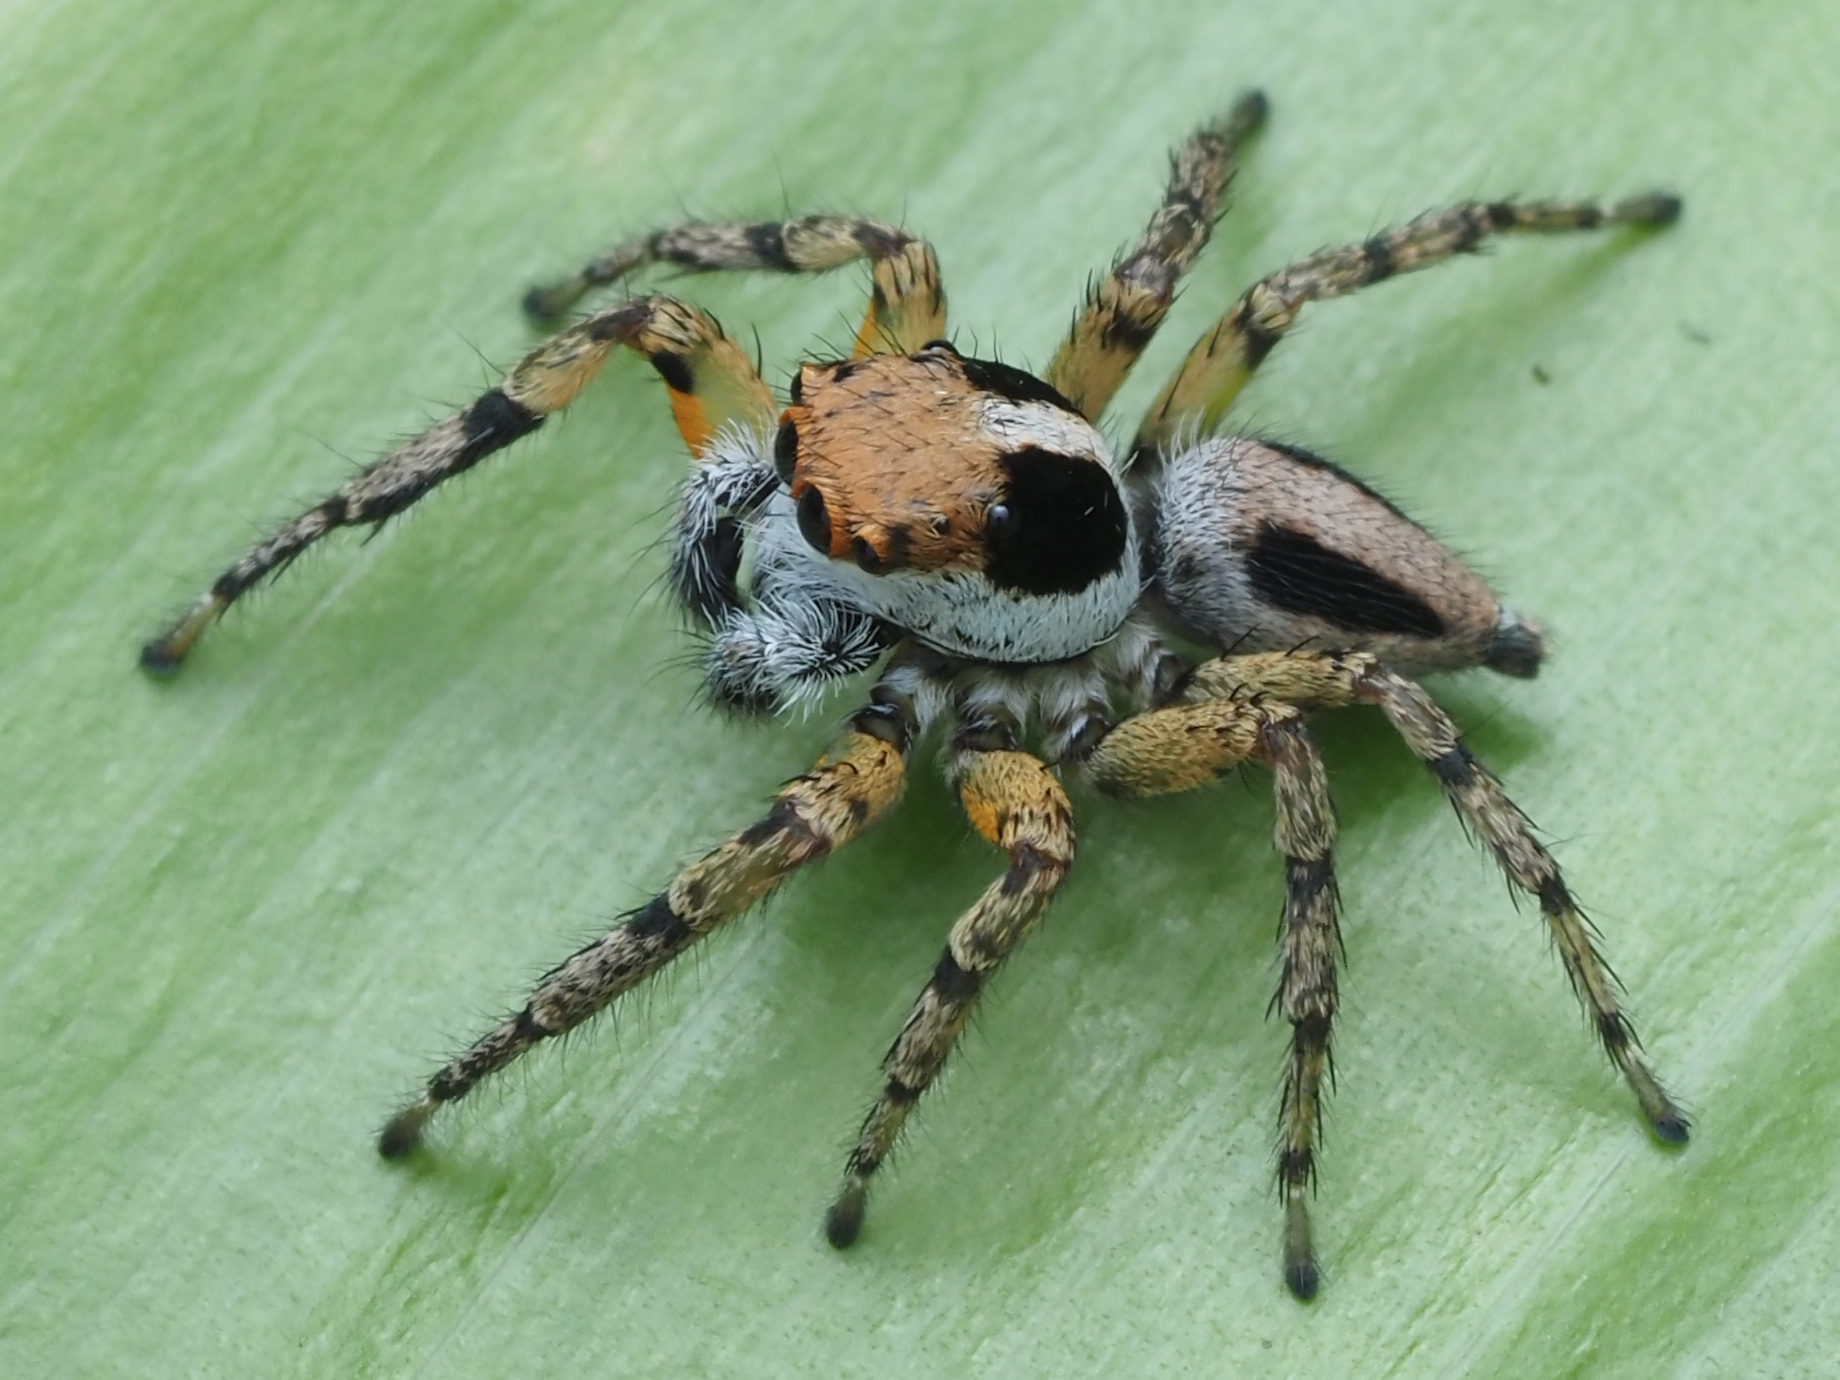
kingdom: Animalia
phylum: Arthropoda
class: Arachnida
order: Araneae
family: Salticidae
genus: Tarkas
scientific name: Tarkas maculatipes
